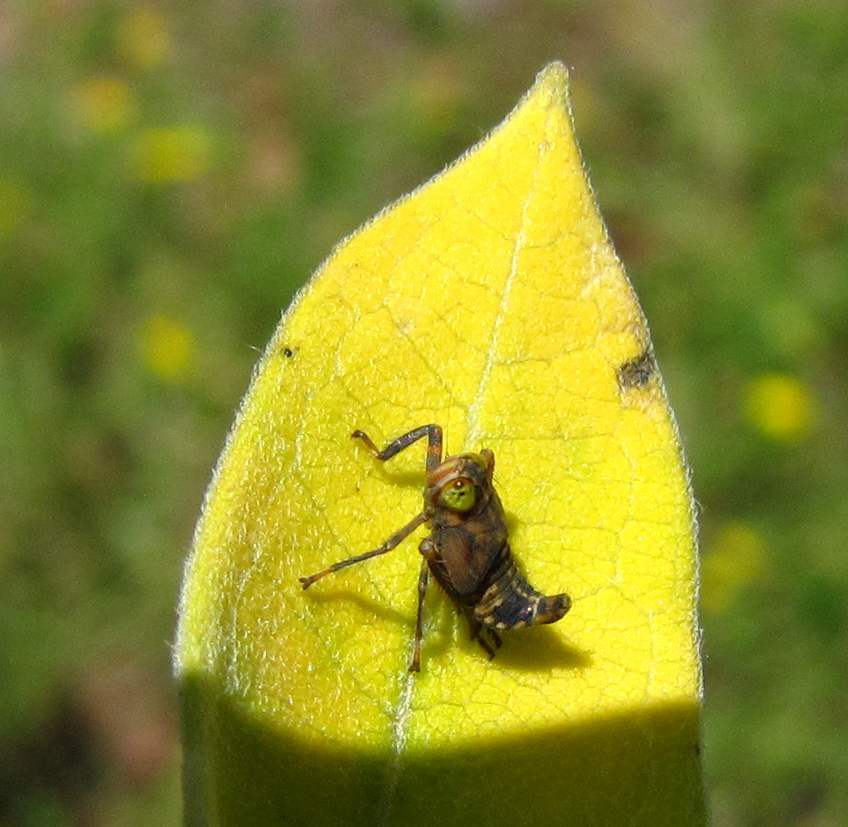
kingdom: Animalia
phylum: Arthropoda
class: Insecta
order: Hemiptera
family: Cicadellidae
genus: Jikradia
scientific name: Jikradia olitoria
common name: Coppery leafhopper
